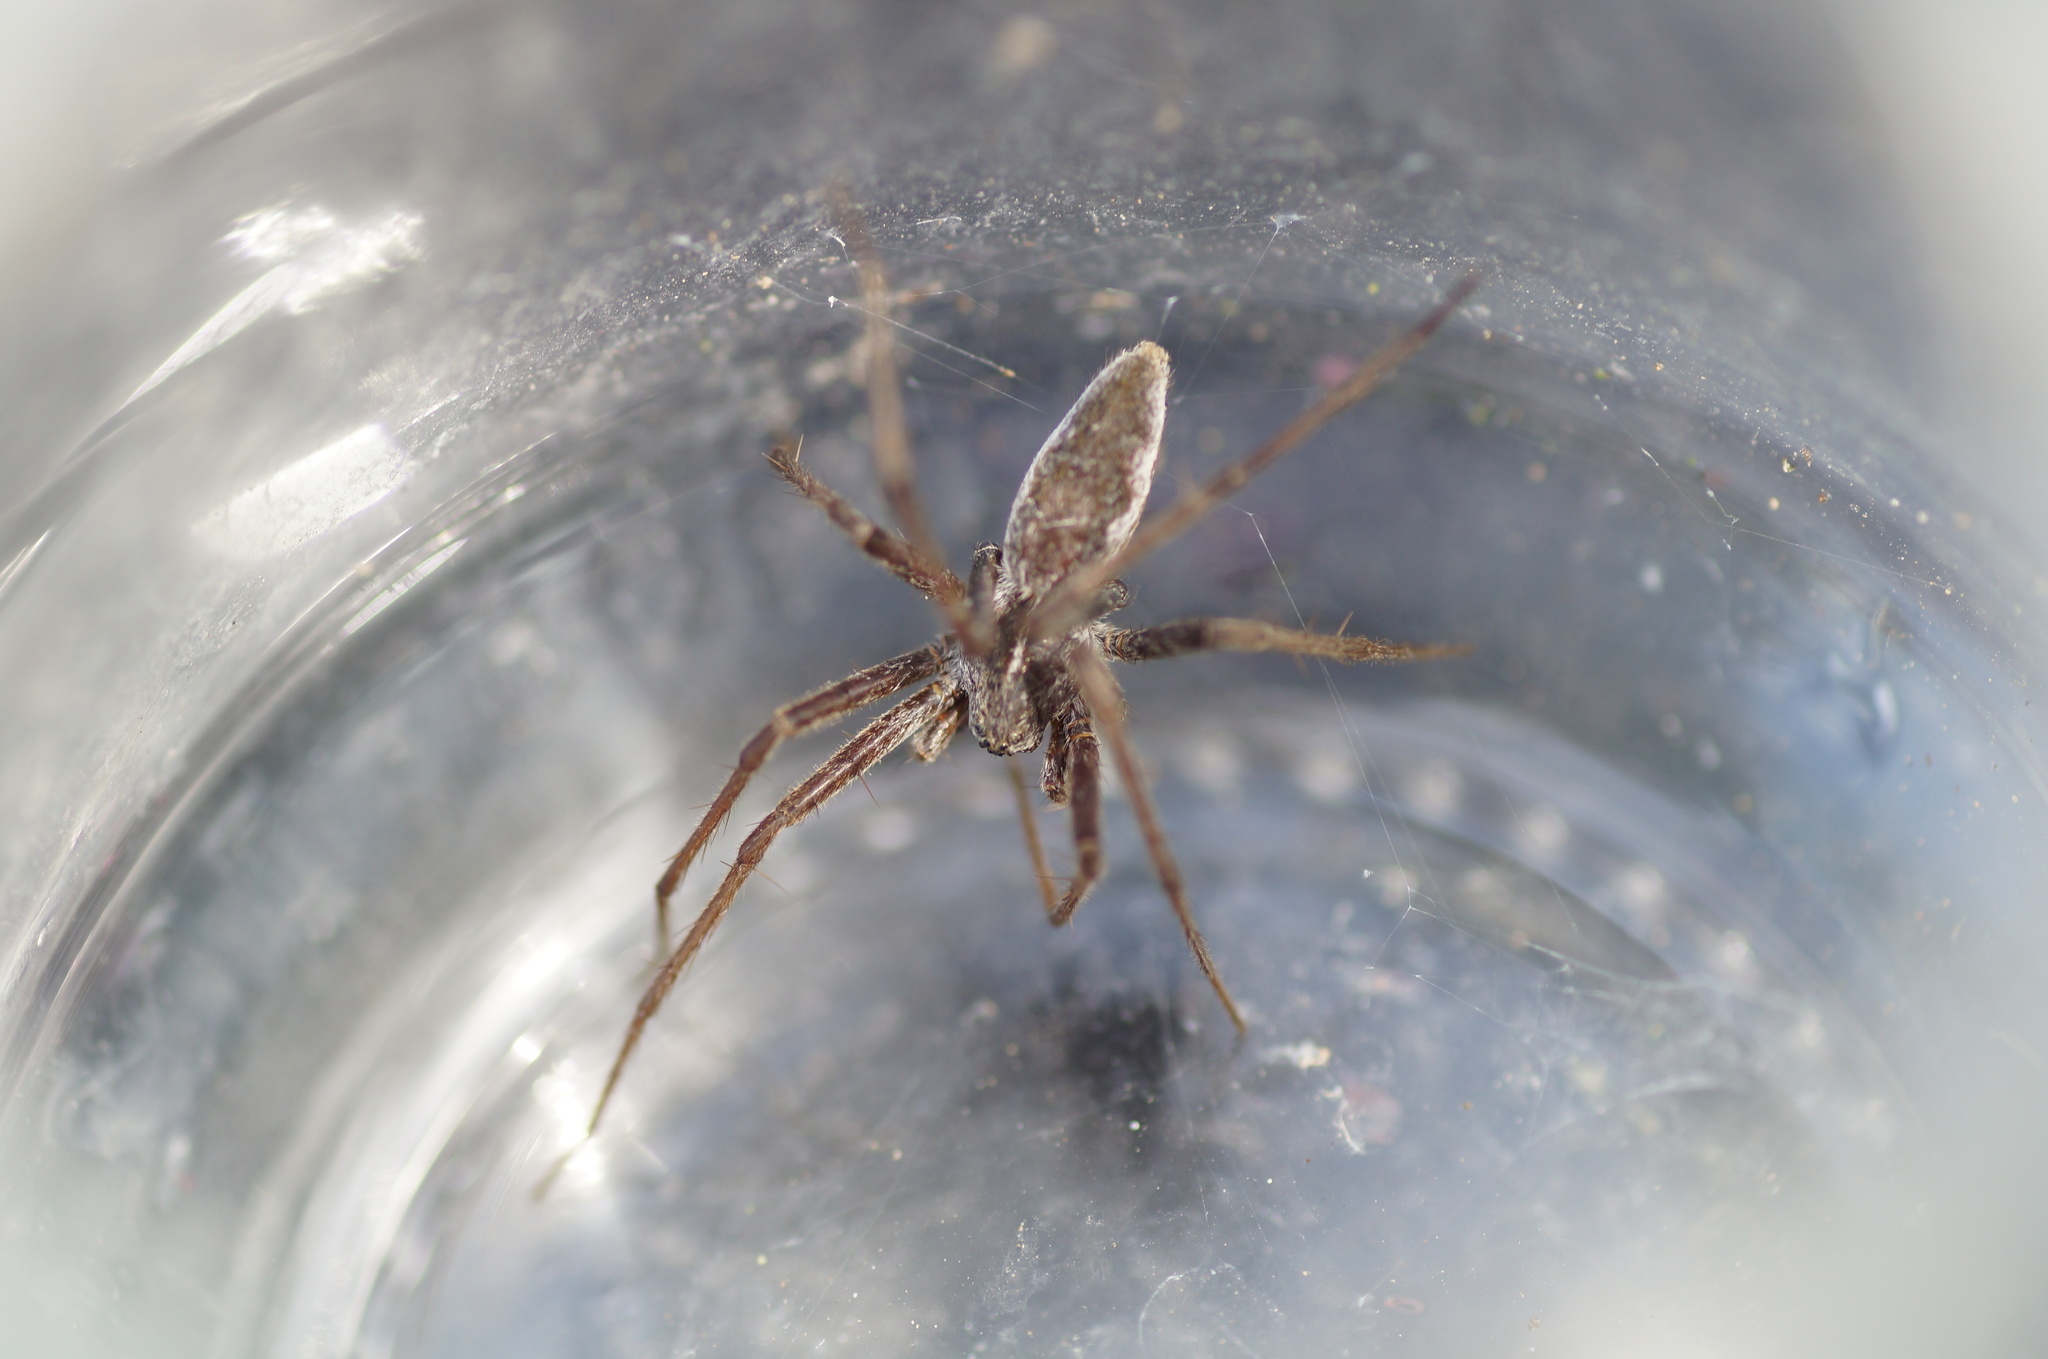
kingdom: Animalia
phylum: Arthropoda
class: Arachnida
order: Araneae
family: Pisauridae
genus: Pisaura
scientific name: Pisaura mirabilis
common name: Tent spider
